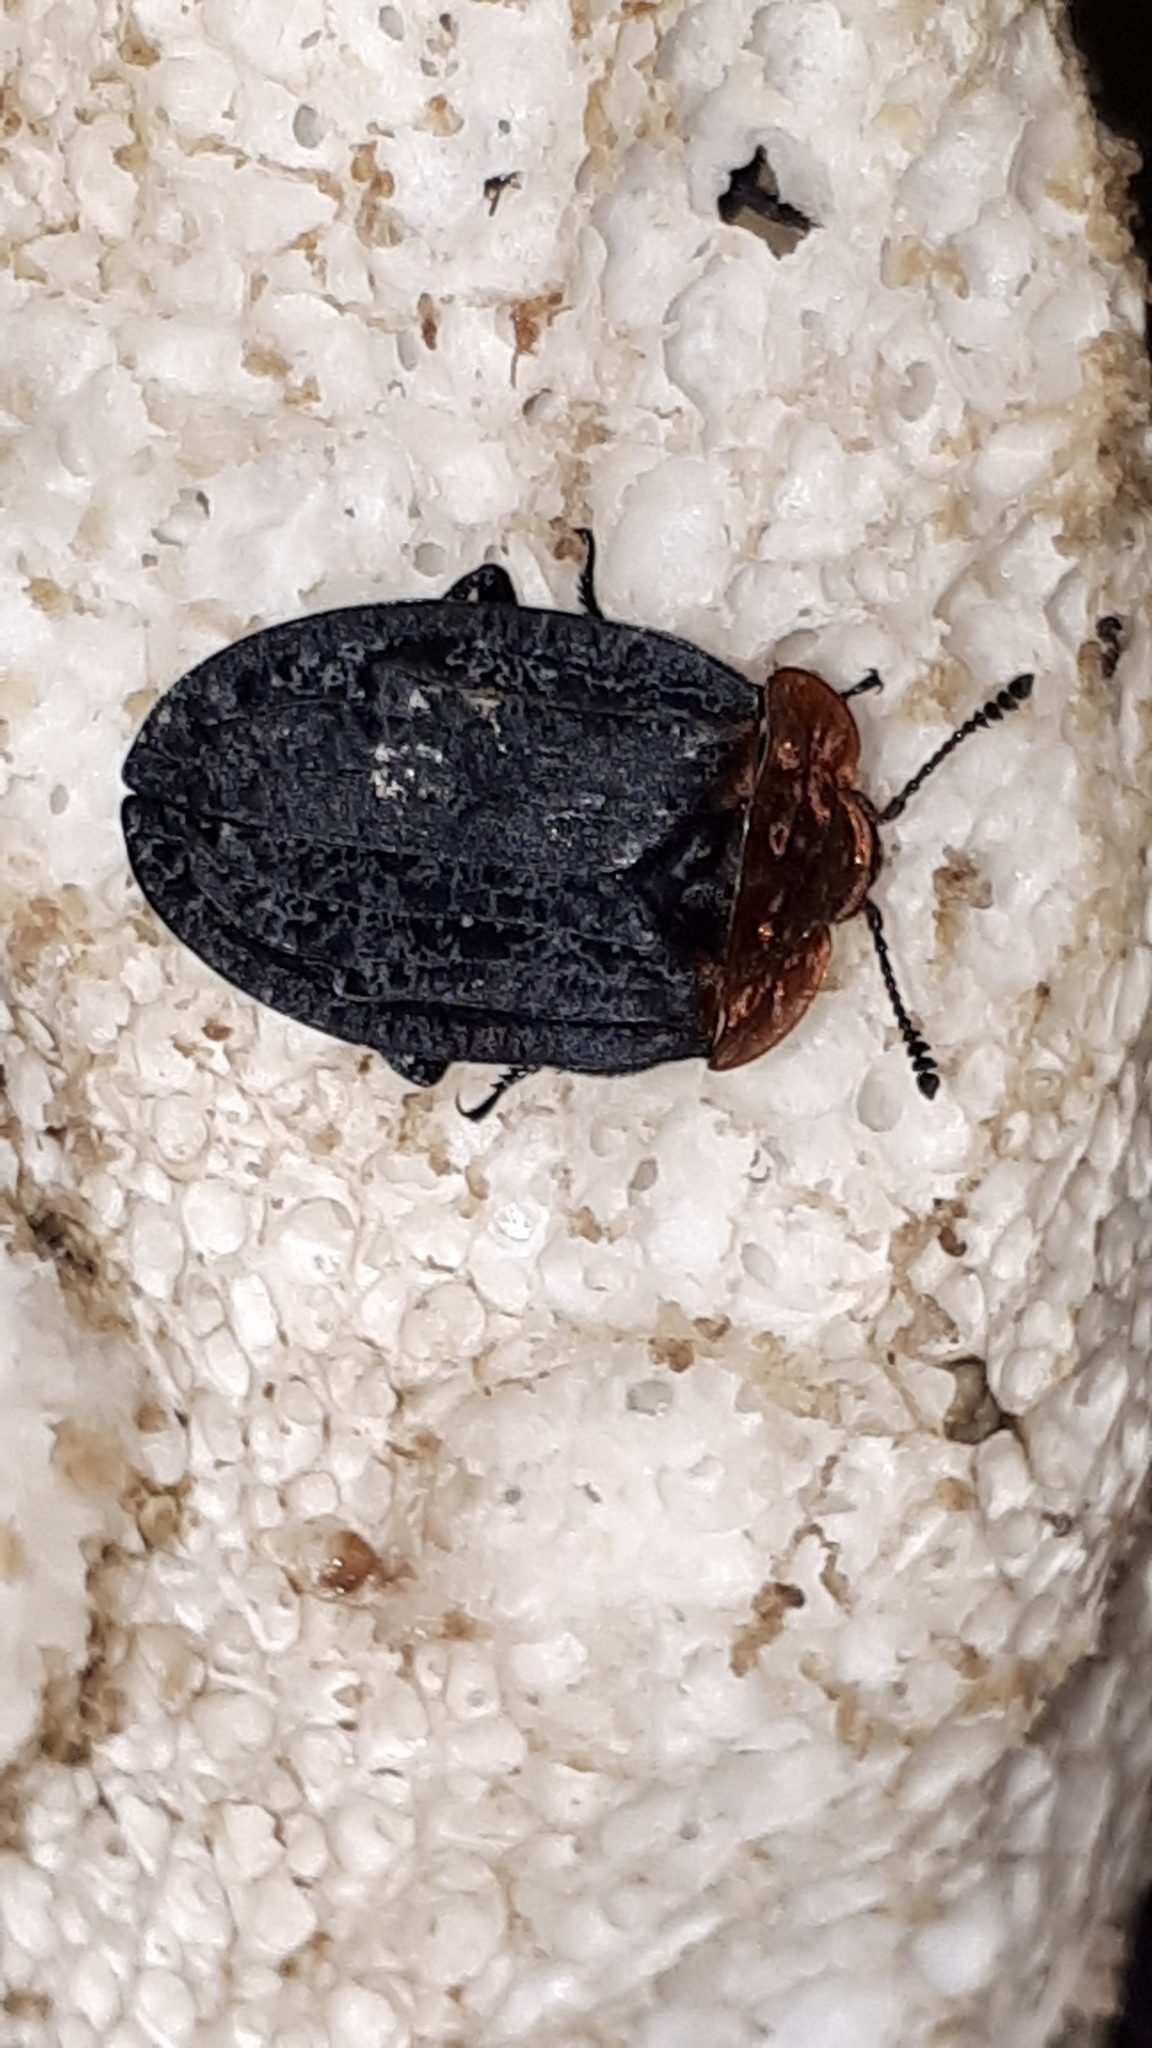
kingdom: Animalia
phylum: Arthropoda
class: Insecta
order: Coleoptera
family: Staphylinidae
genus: Oiceoptoma
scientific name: Oiceoptoma thoracicum
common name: Red-breasted carrion beetle
